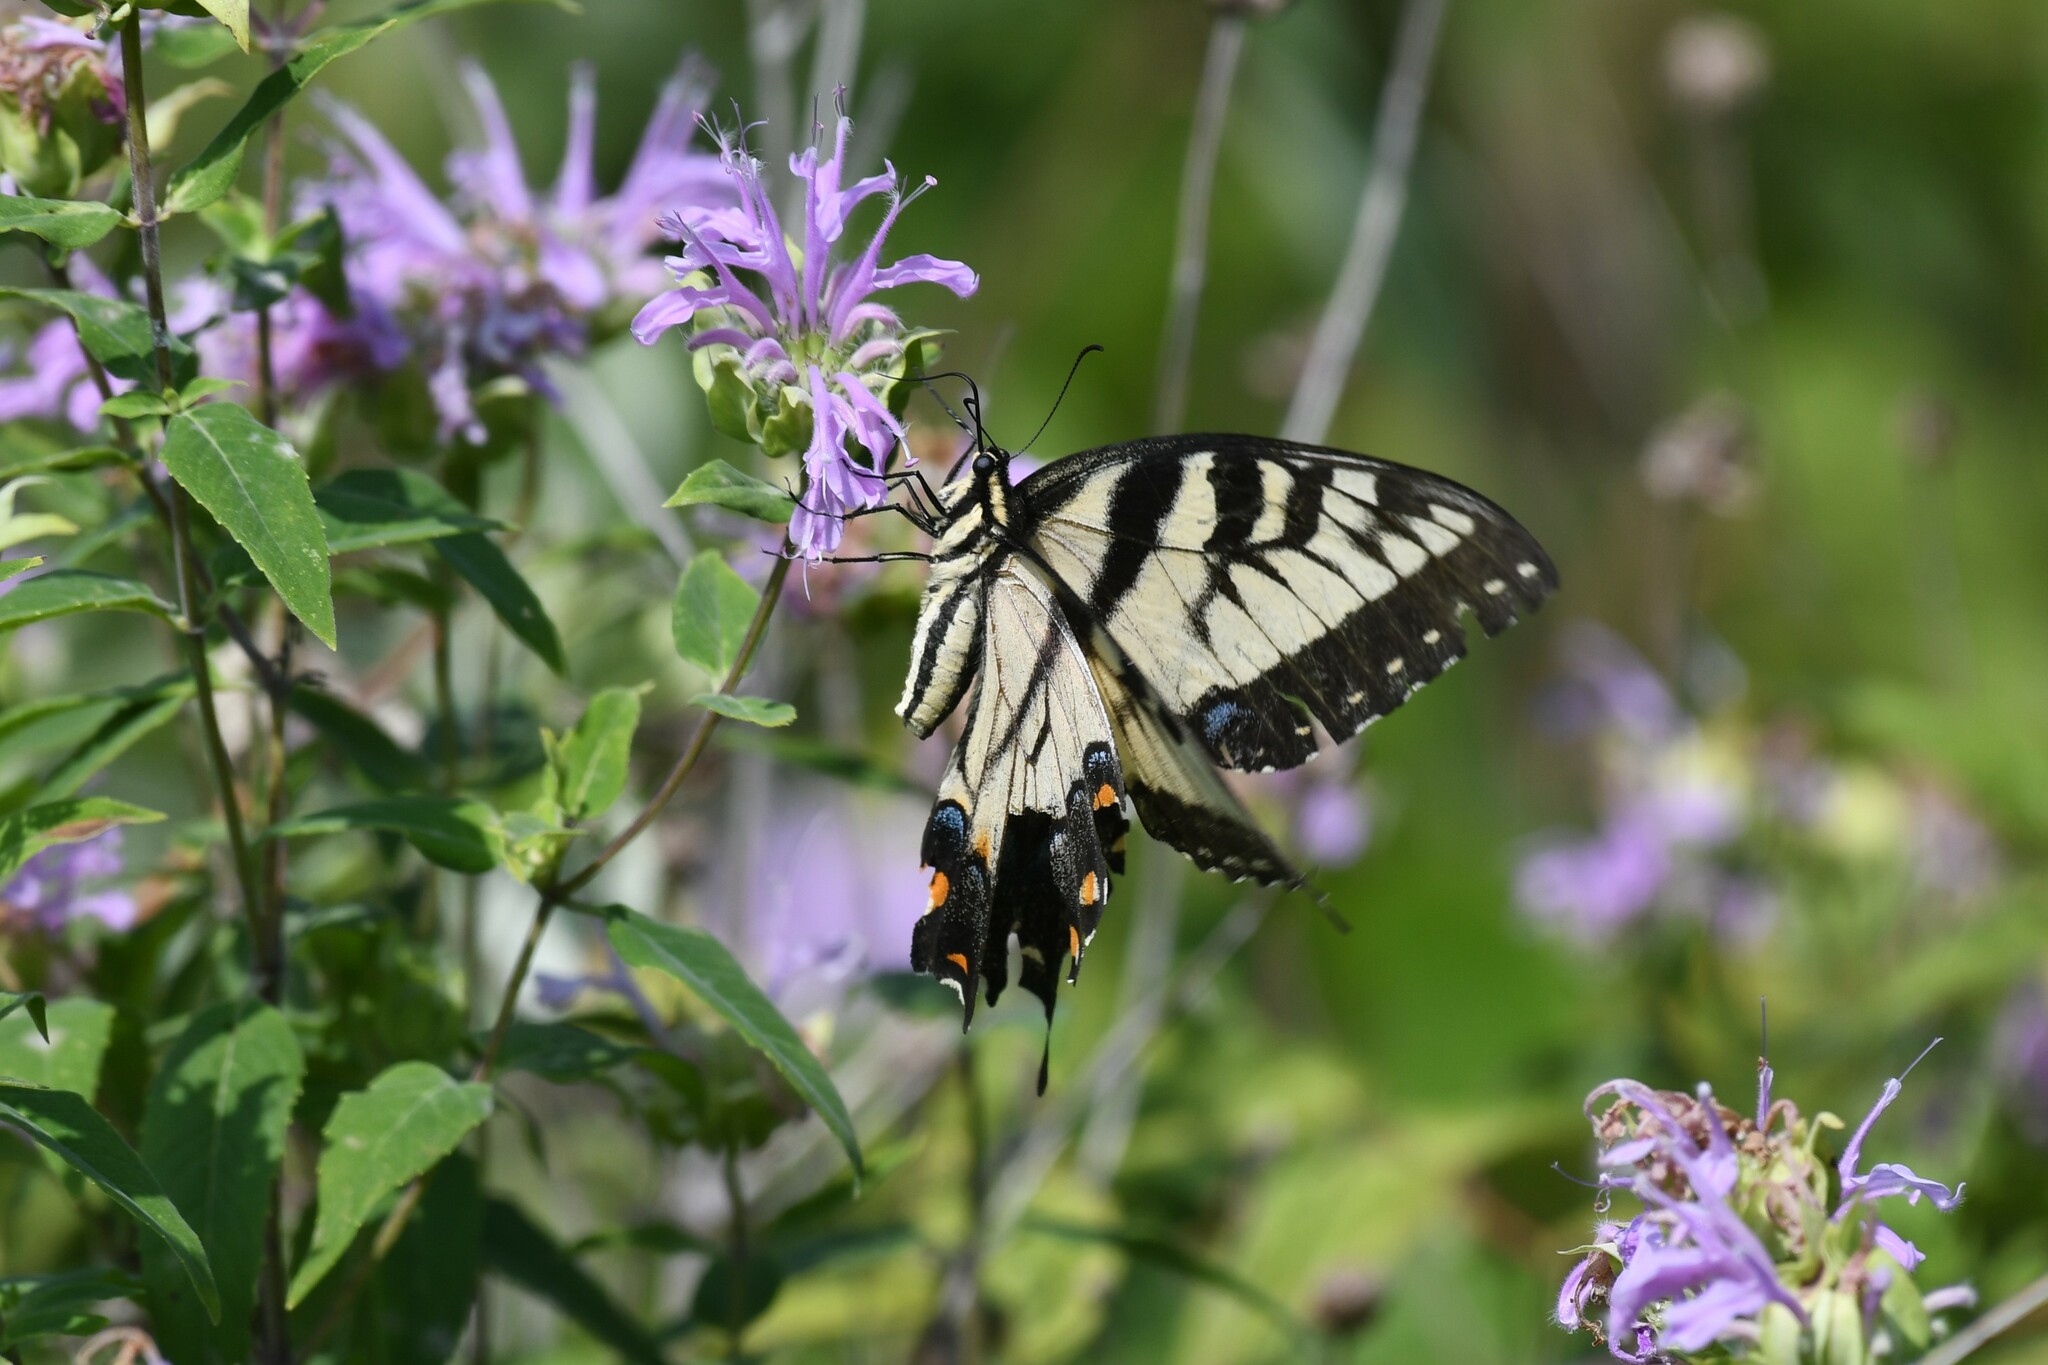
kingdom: Animalia
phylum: Arthropoda
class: Insecta
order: Lepidoptera
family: Papilionidae
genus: Papilio
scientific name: Papilio glaucus
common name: Tiger swallowtail
